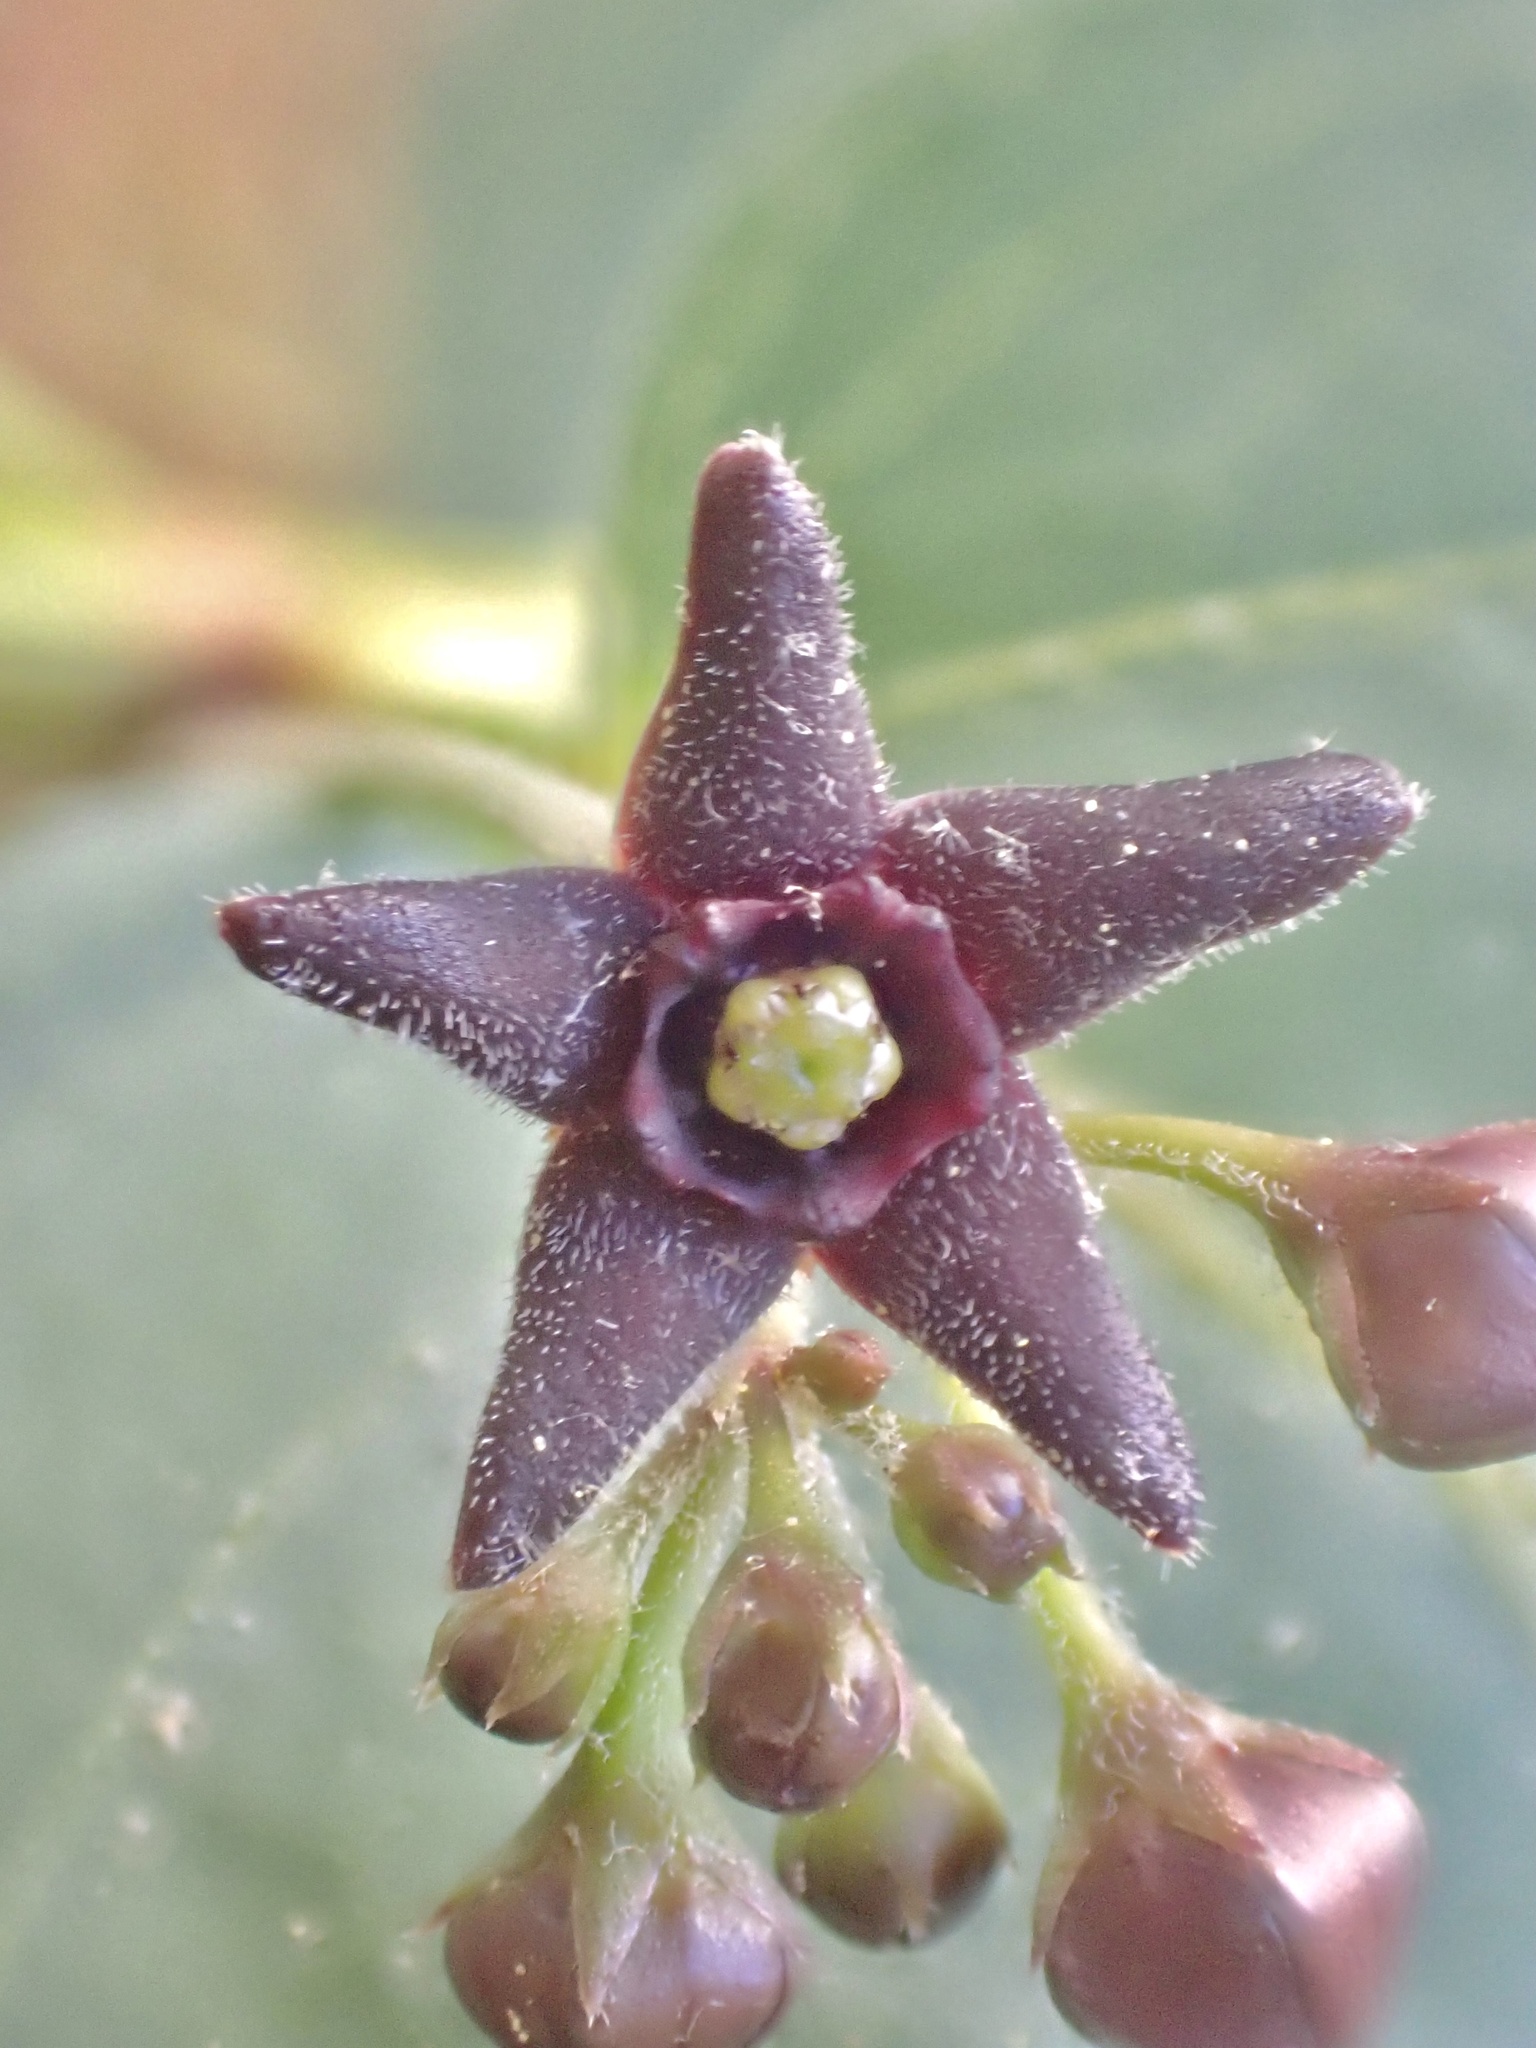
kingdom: Plantae
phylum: Tracheophyta
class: Magnoliopsida
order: Gentianales
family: Apocynaceae
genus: Vincetoxicum
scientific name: Vincetoxicum nigrum
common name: Black swallow-wort
